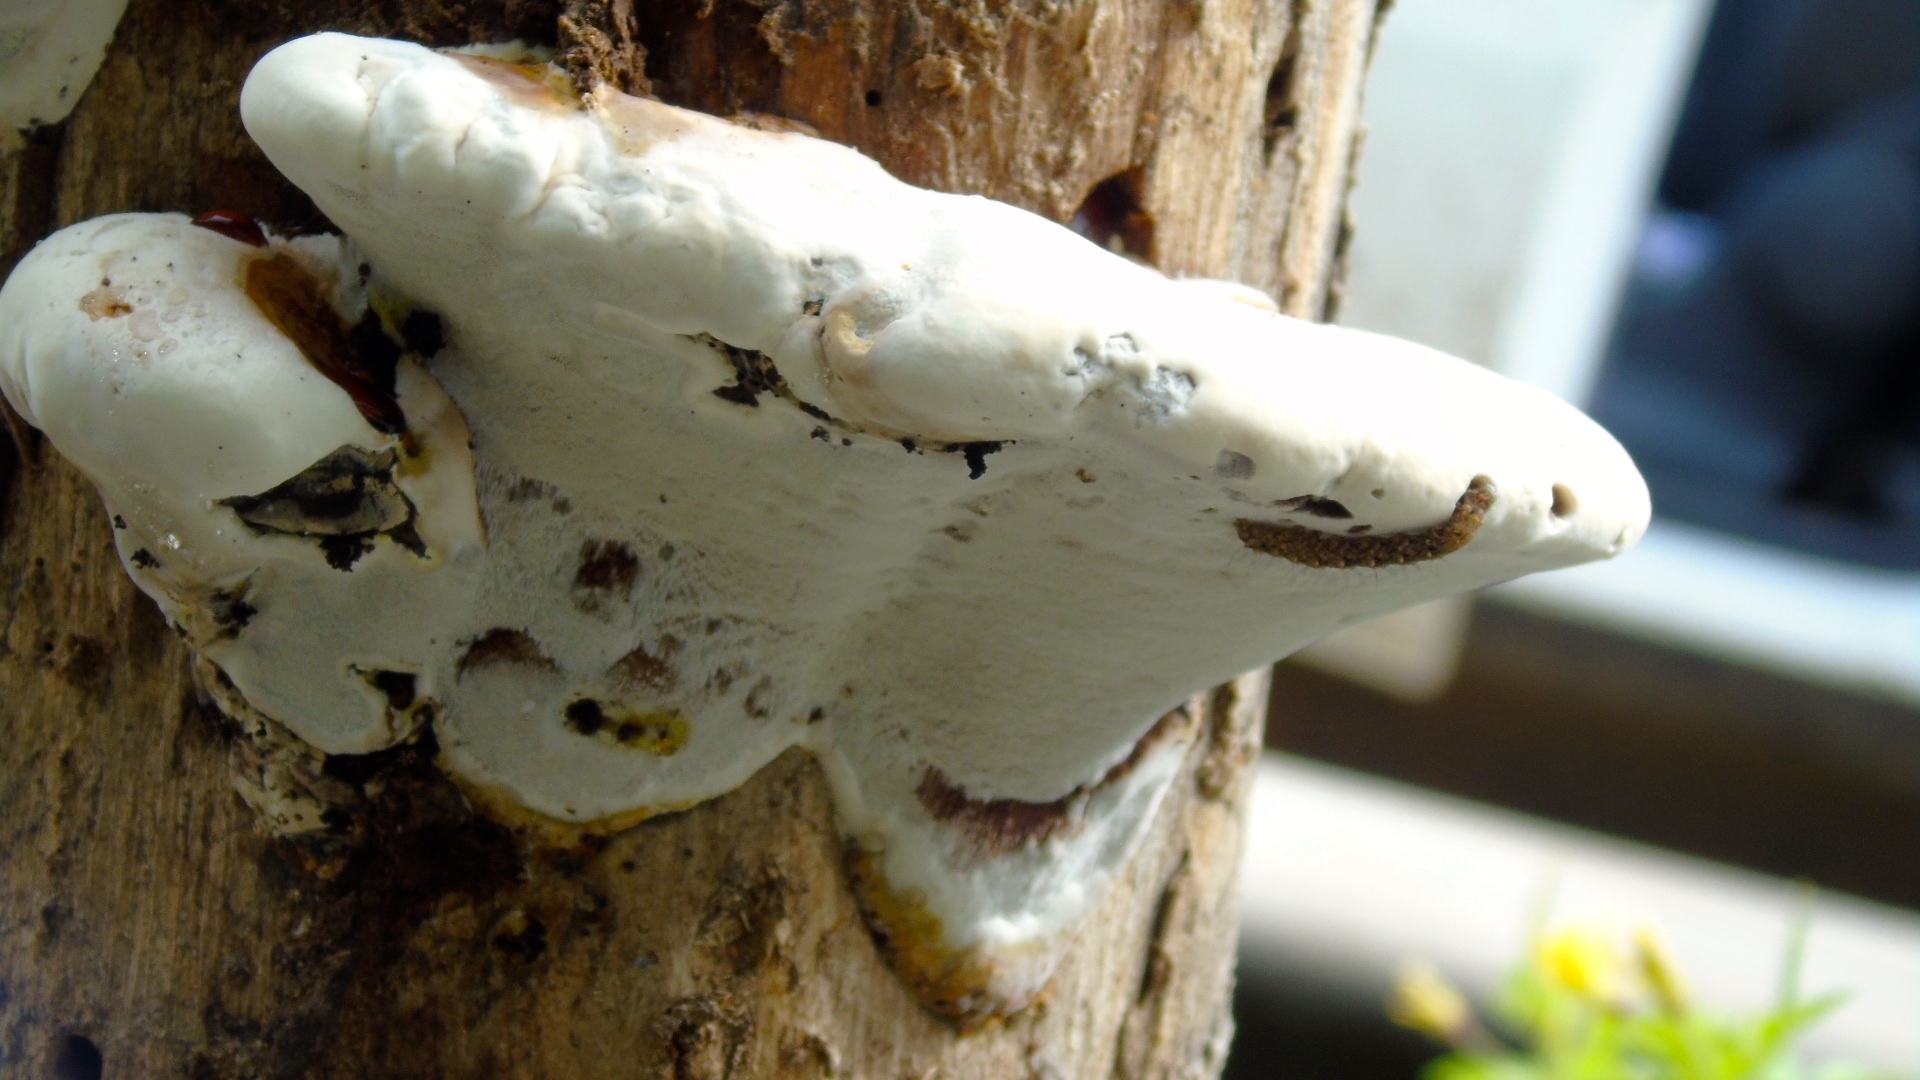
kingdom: Fungi
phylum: Basidiomycota
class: Agaricomycetes
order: Polyporales
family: Polyporaceae
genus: Ganoderma
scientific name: Ganoderma
